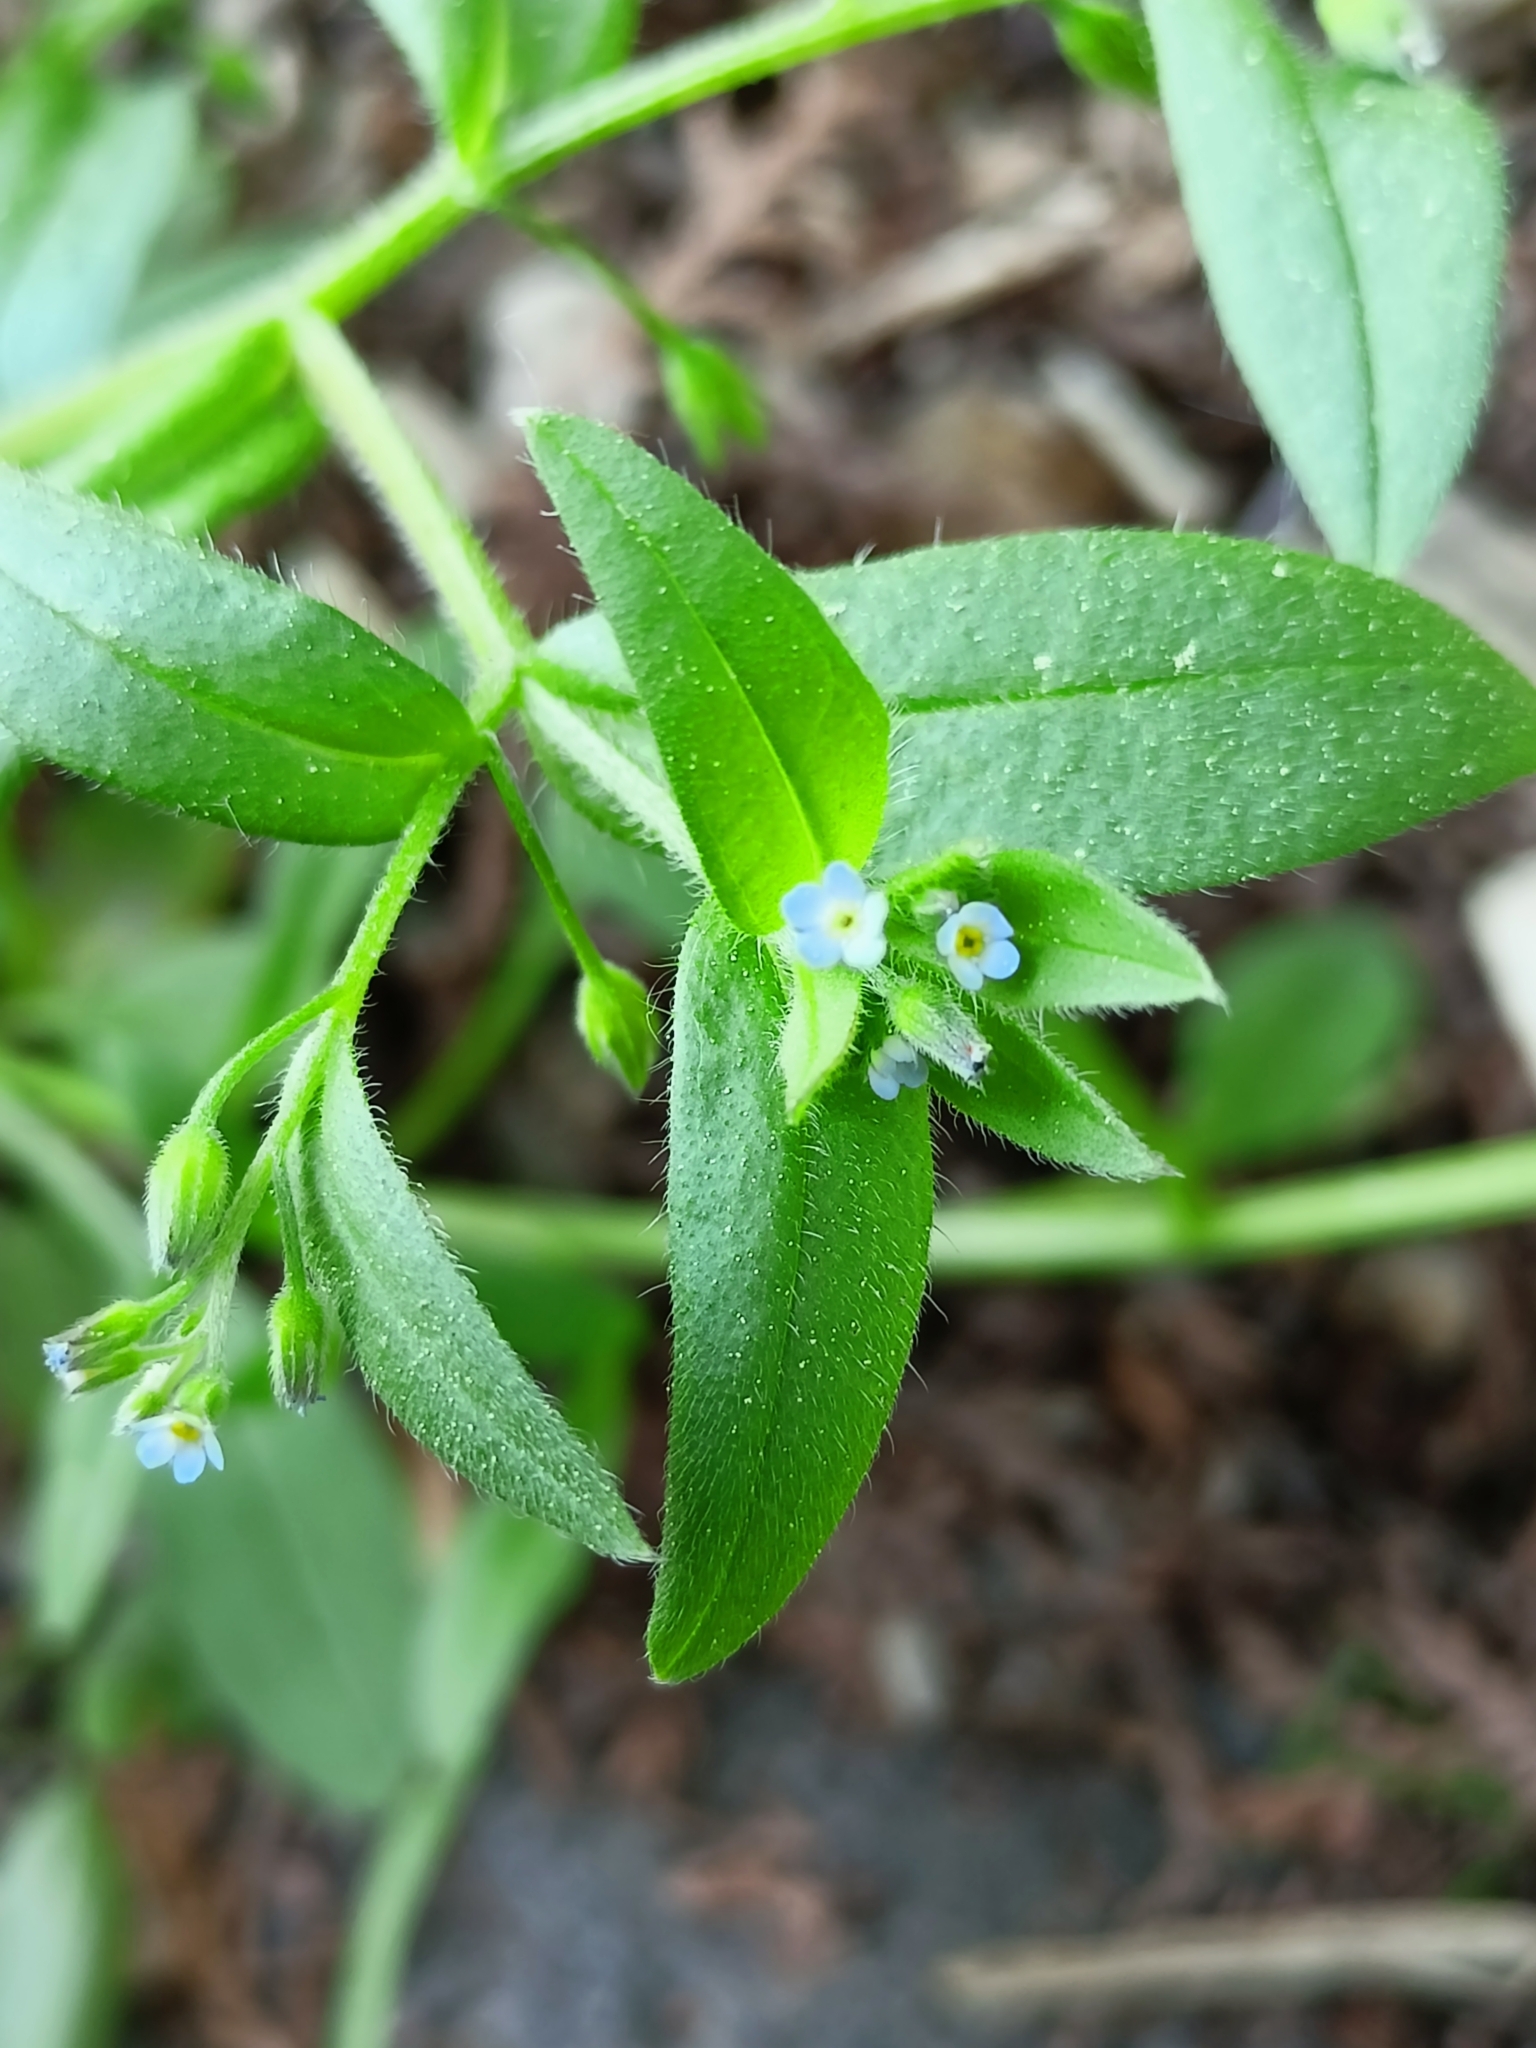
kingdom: Plantae
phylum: Tracheophyta
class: Magnoliopsida
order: Boraginales
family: Boraginaceae
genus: Myosotis
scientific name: Myosotis sparsiflora
